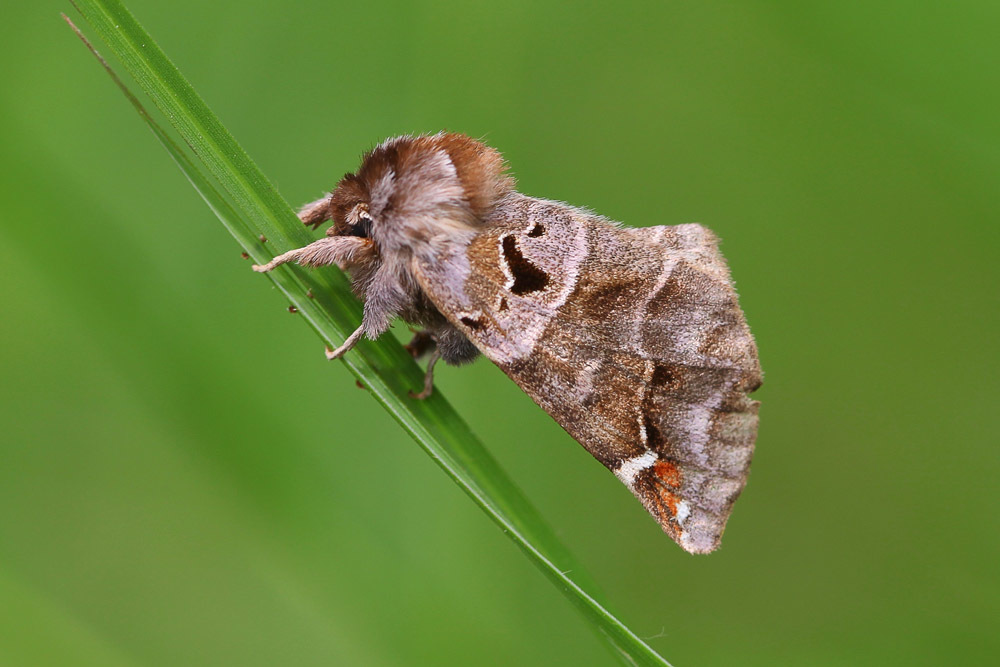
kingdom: Animalia
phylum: Arthropoda
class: Insecta
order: Lepidoptera
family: Notodontidae
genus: Pygaera
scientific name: Pygaera timon
